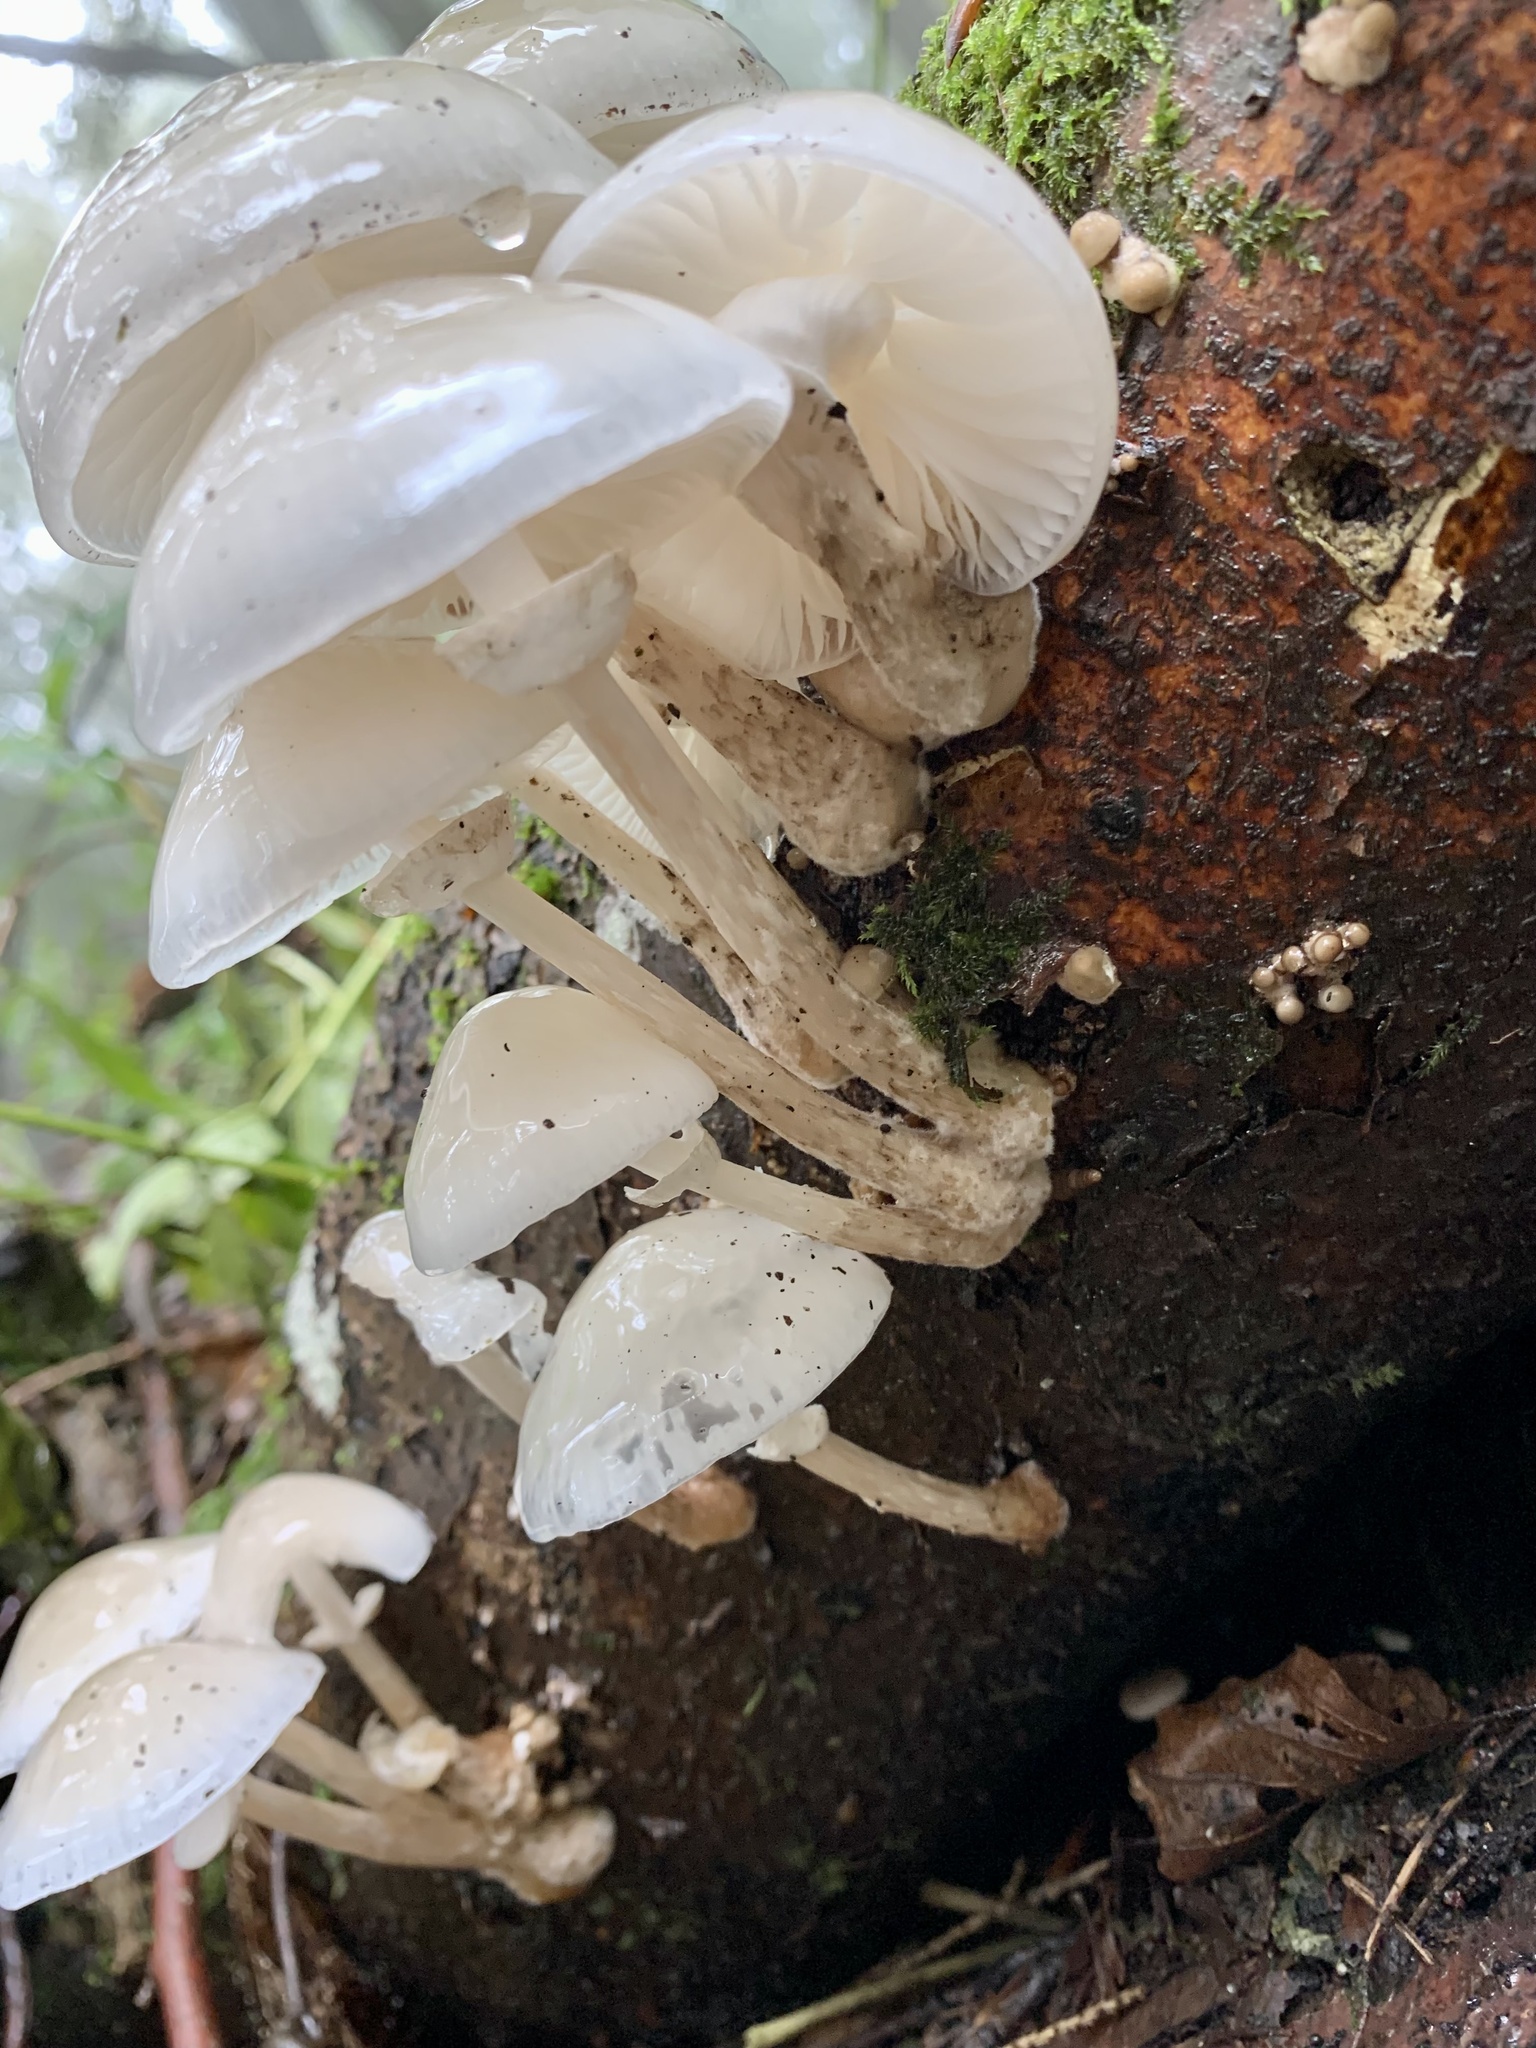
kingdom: Fungi
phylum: Basidiomycota
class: Agaricomycetes
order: Agaricales
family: Physalacriaceae
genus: Mucidula
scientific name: Mucidula mucida
